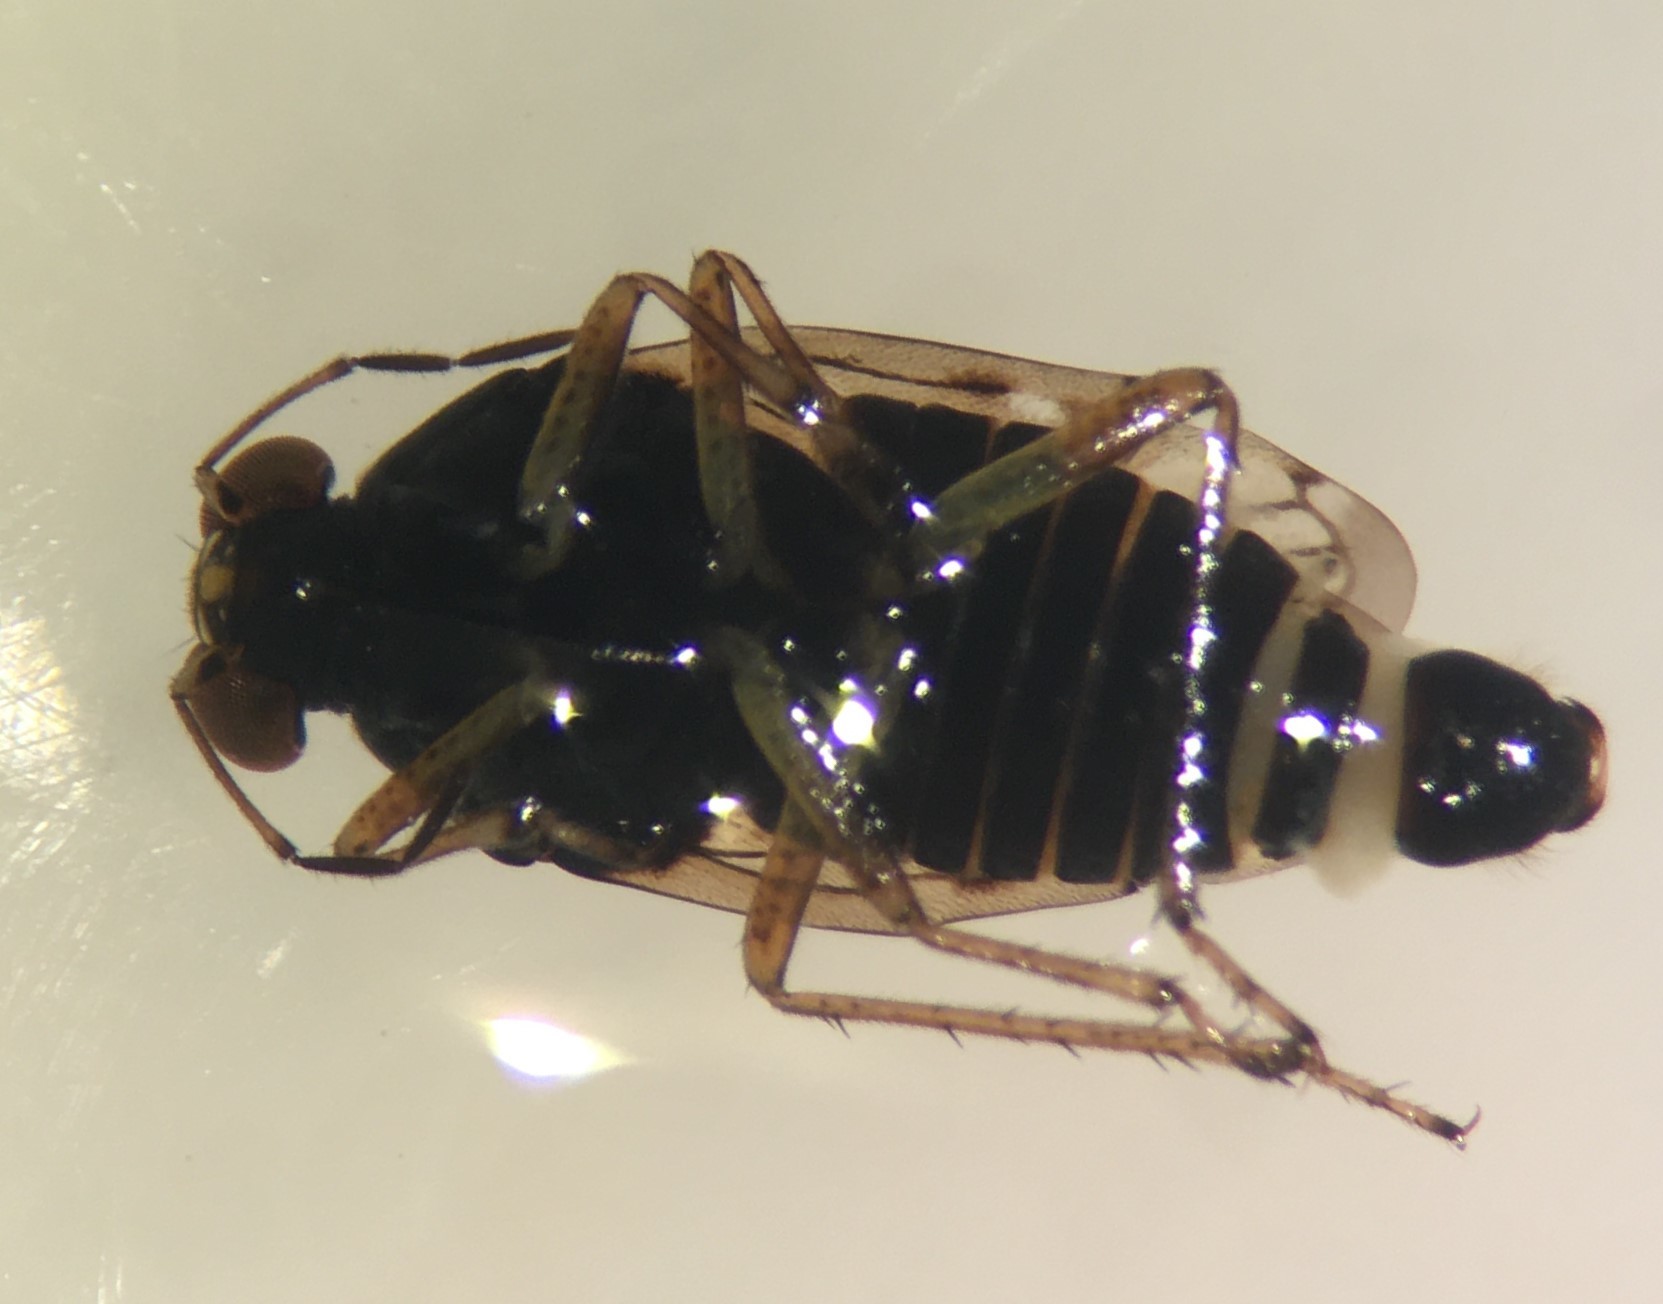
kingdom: Animalia
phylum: Arthropoda
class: Insecta
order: Hemiptera
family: Saldidae
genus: Saldula
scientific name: Saldula lomata
